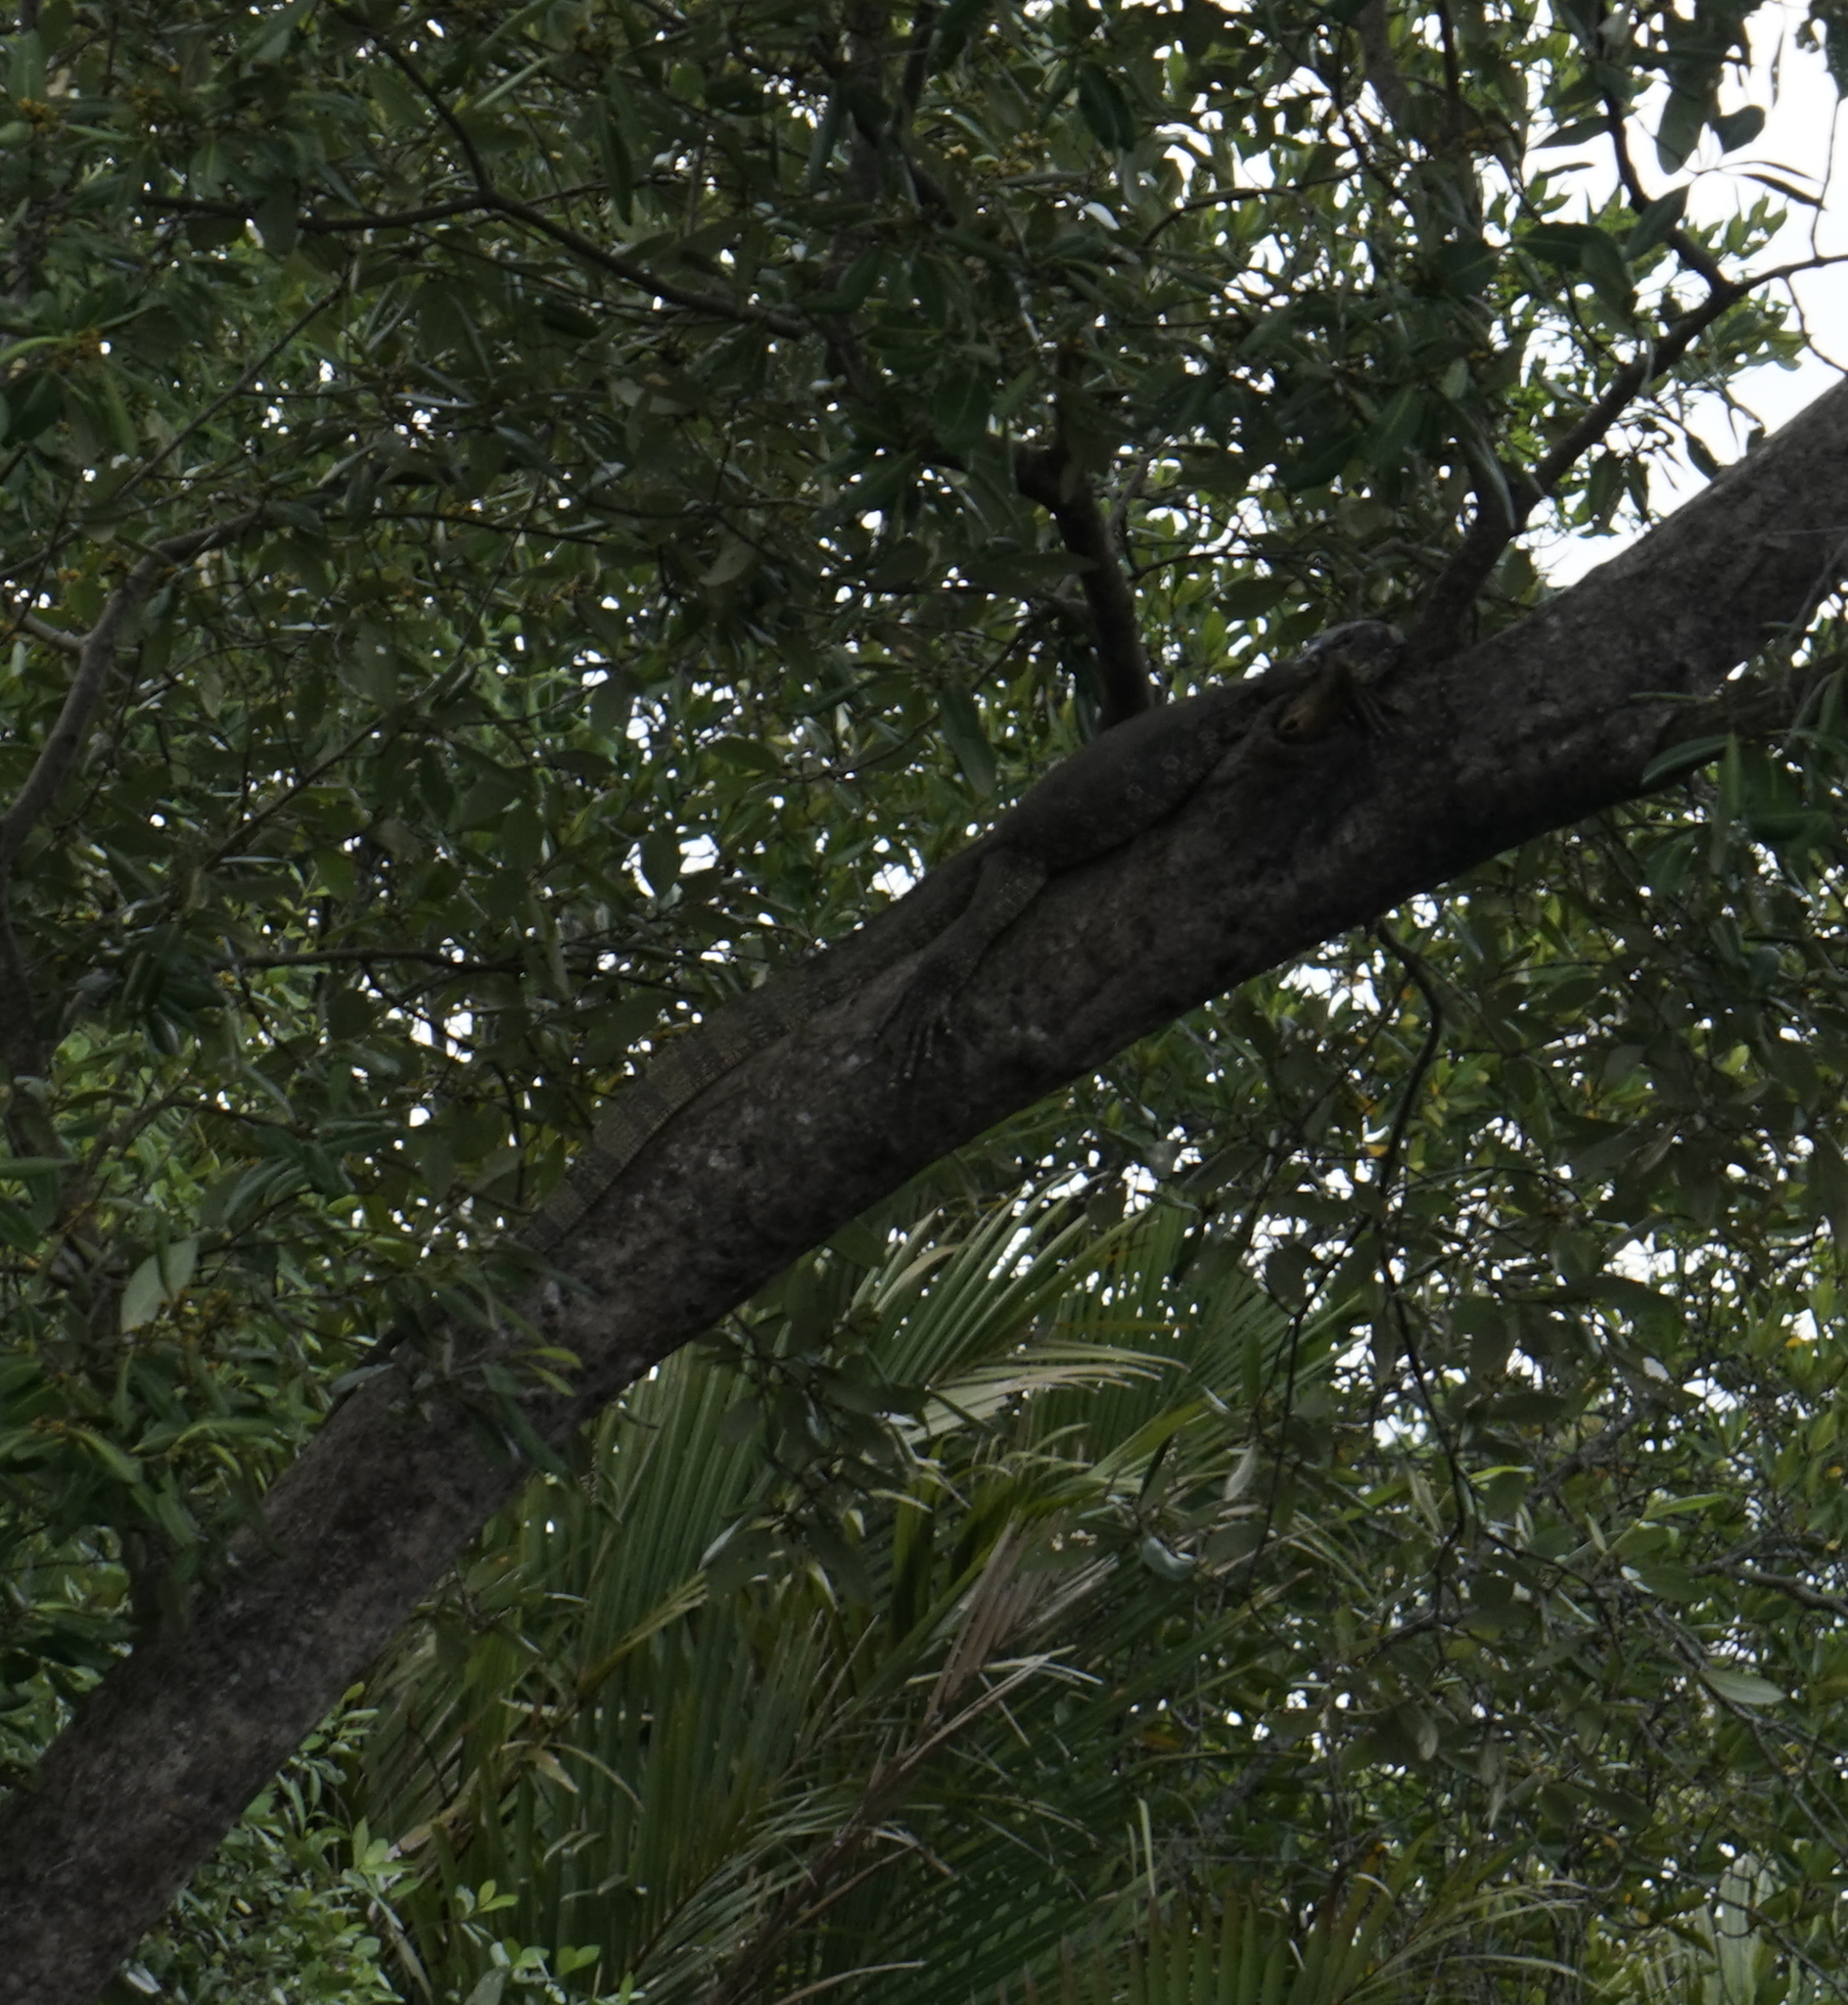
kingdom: Animalia
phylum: Chordata
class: Squamata
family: Varanidae
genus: Varanus
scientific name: Varanus salvator
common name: Common water monitor
